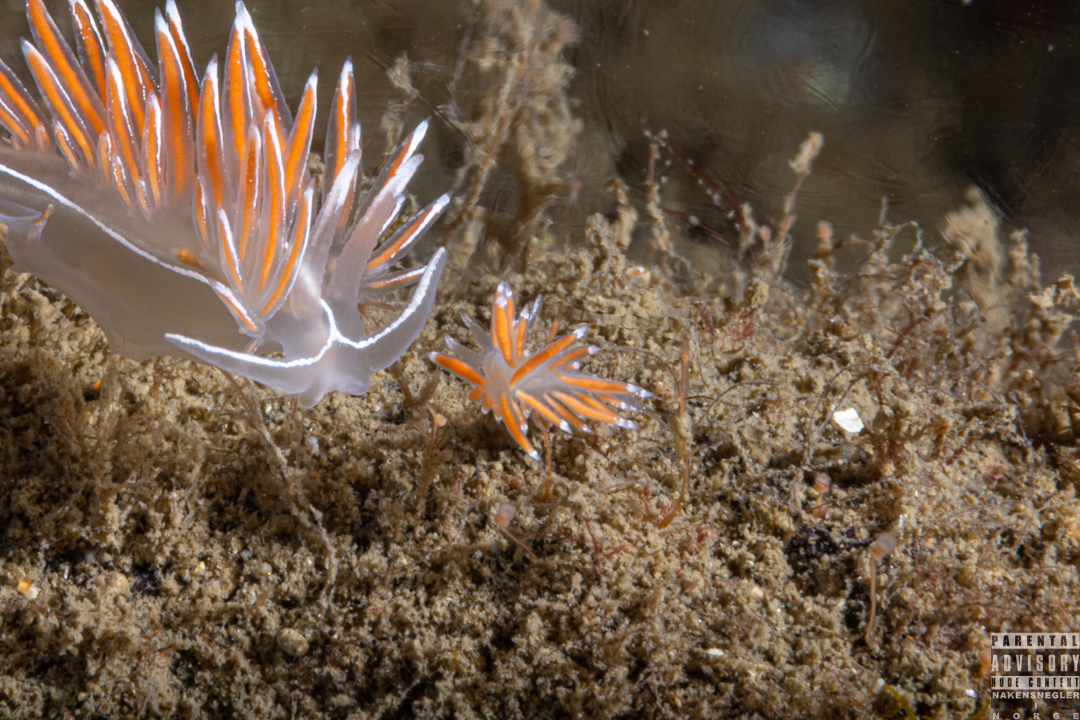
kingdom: Animalia
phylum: Mollusca
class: Gastropoda
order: Nudibranchia
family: Coryphellidae
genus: Coryphella
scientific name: Coryphella gracilis
